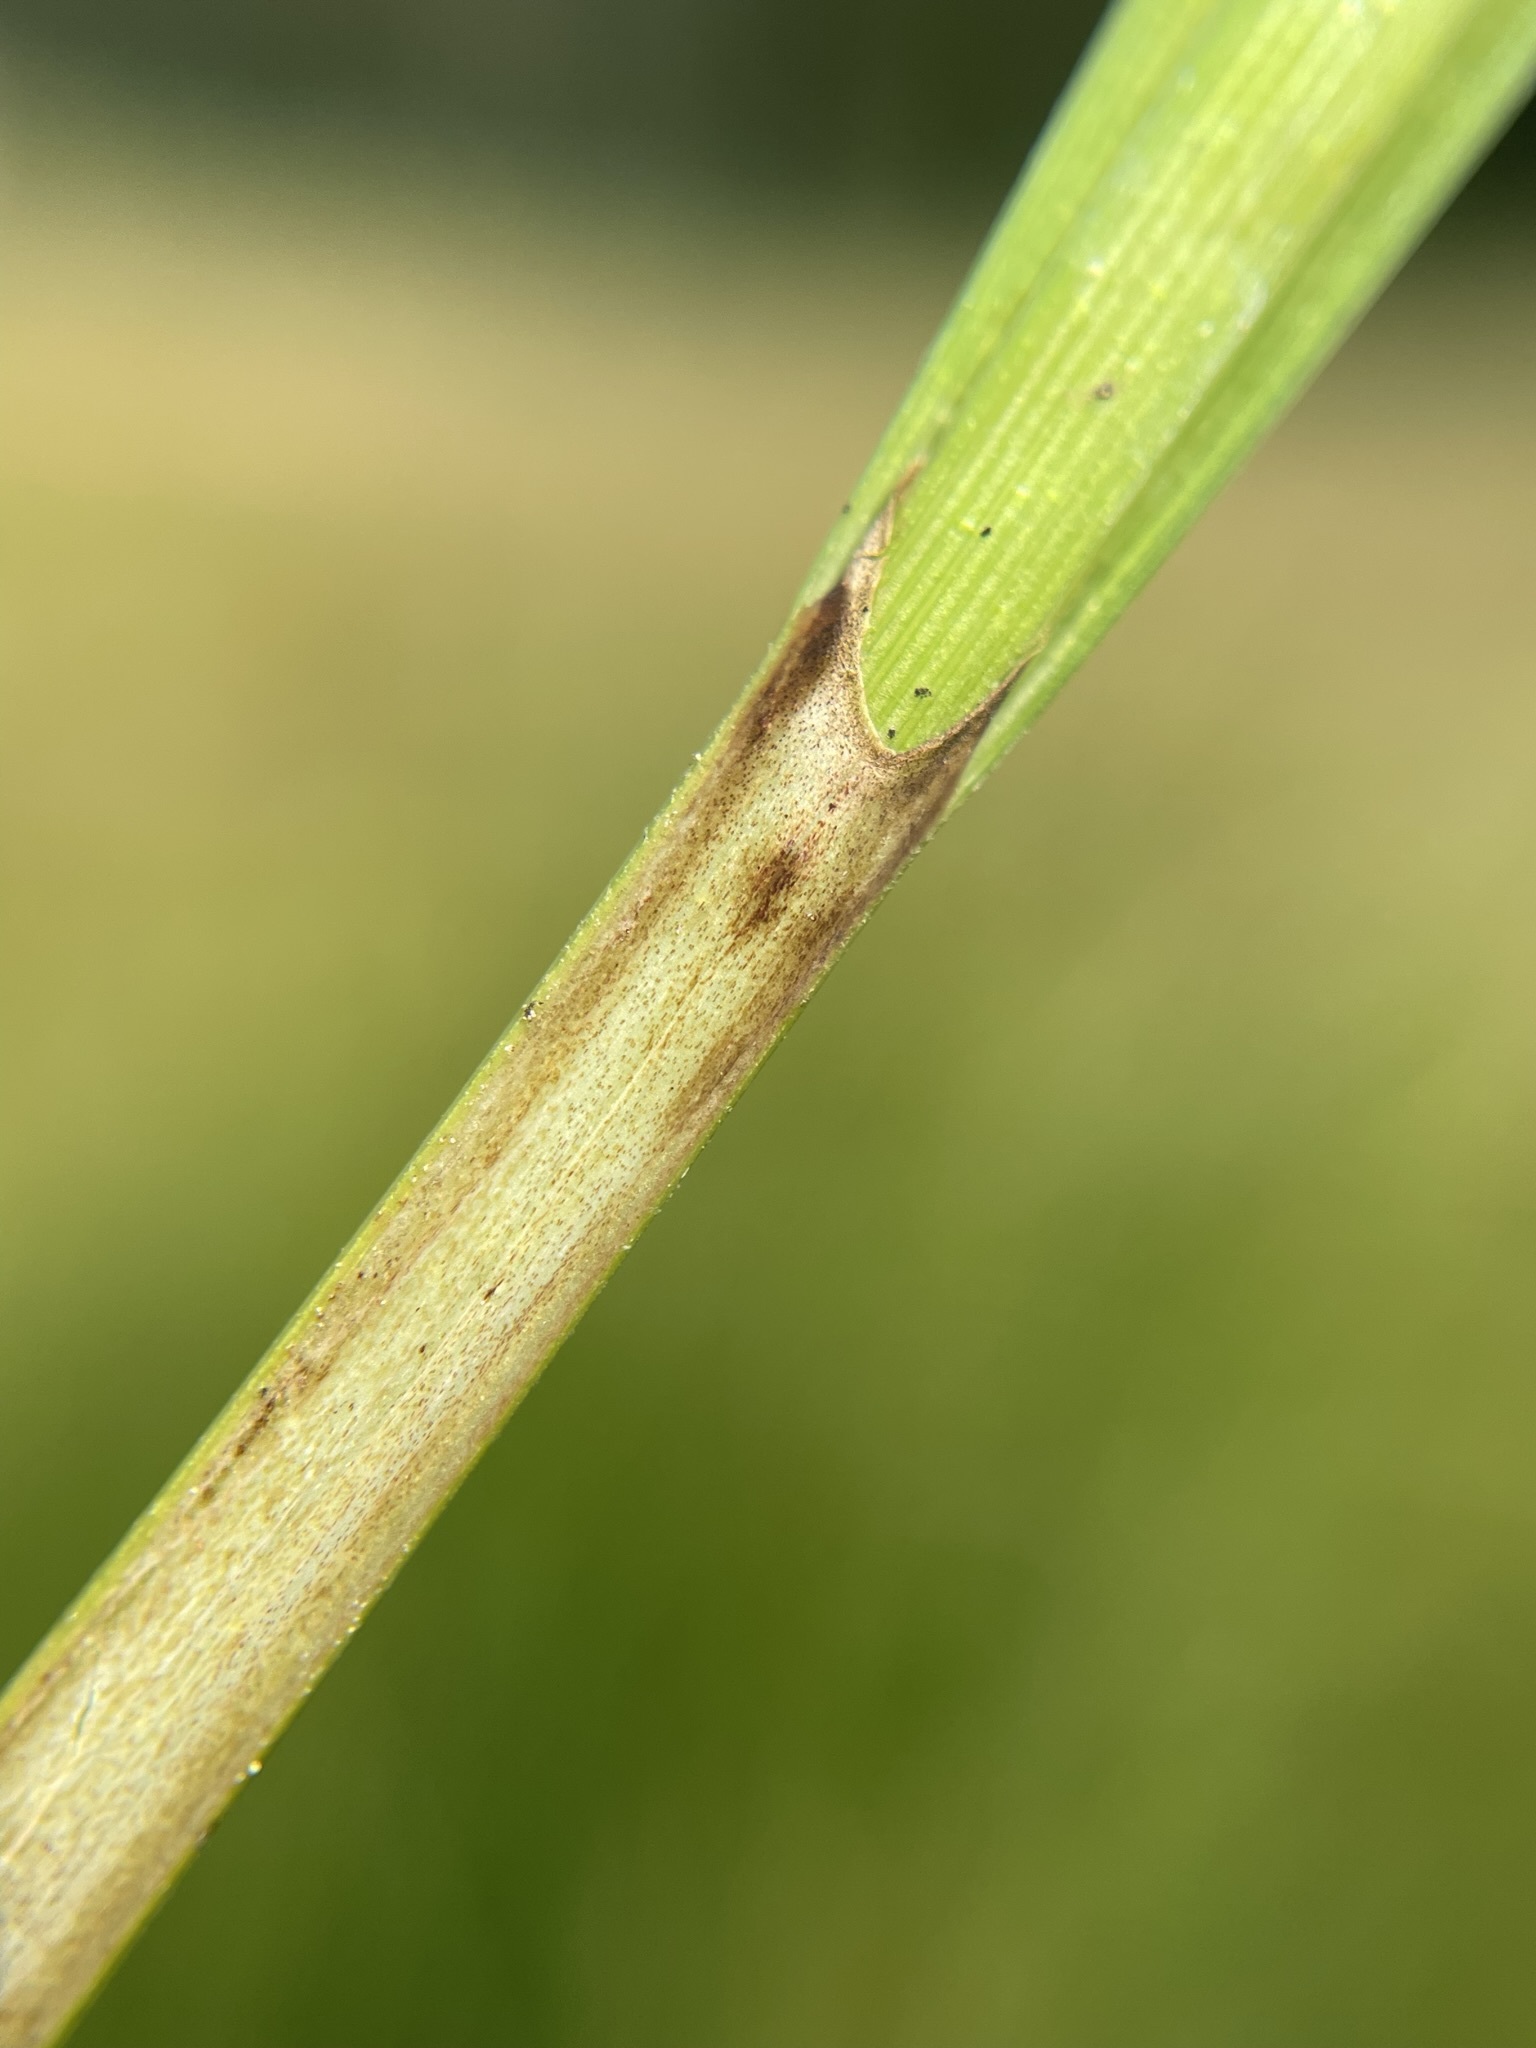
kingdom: Plantae
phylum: Tracheophyta
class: Liliopsida
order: Poales
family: Cyperaceae
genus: Carex
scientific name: Carex aquatilis
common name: Water sedge
